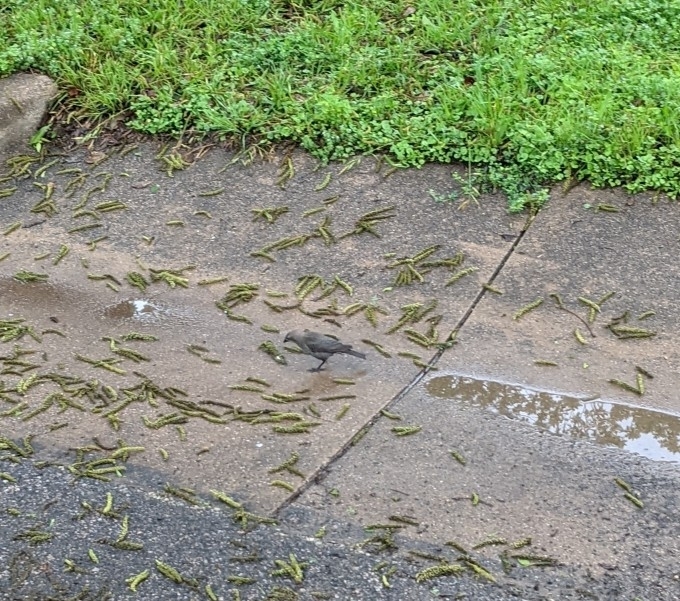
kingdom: Animalia
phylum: Chordata
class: Aves
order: Passeriformes
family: Icteridae
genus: Molothrus
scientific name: Molothrus ater
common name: Brown-headed cowbird
